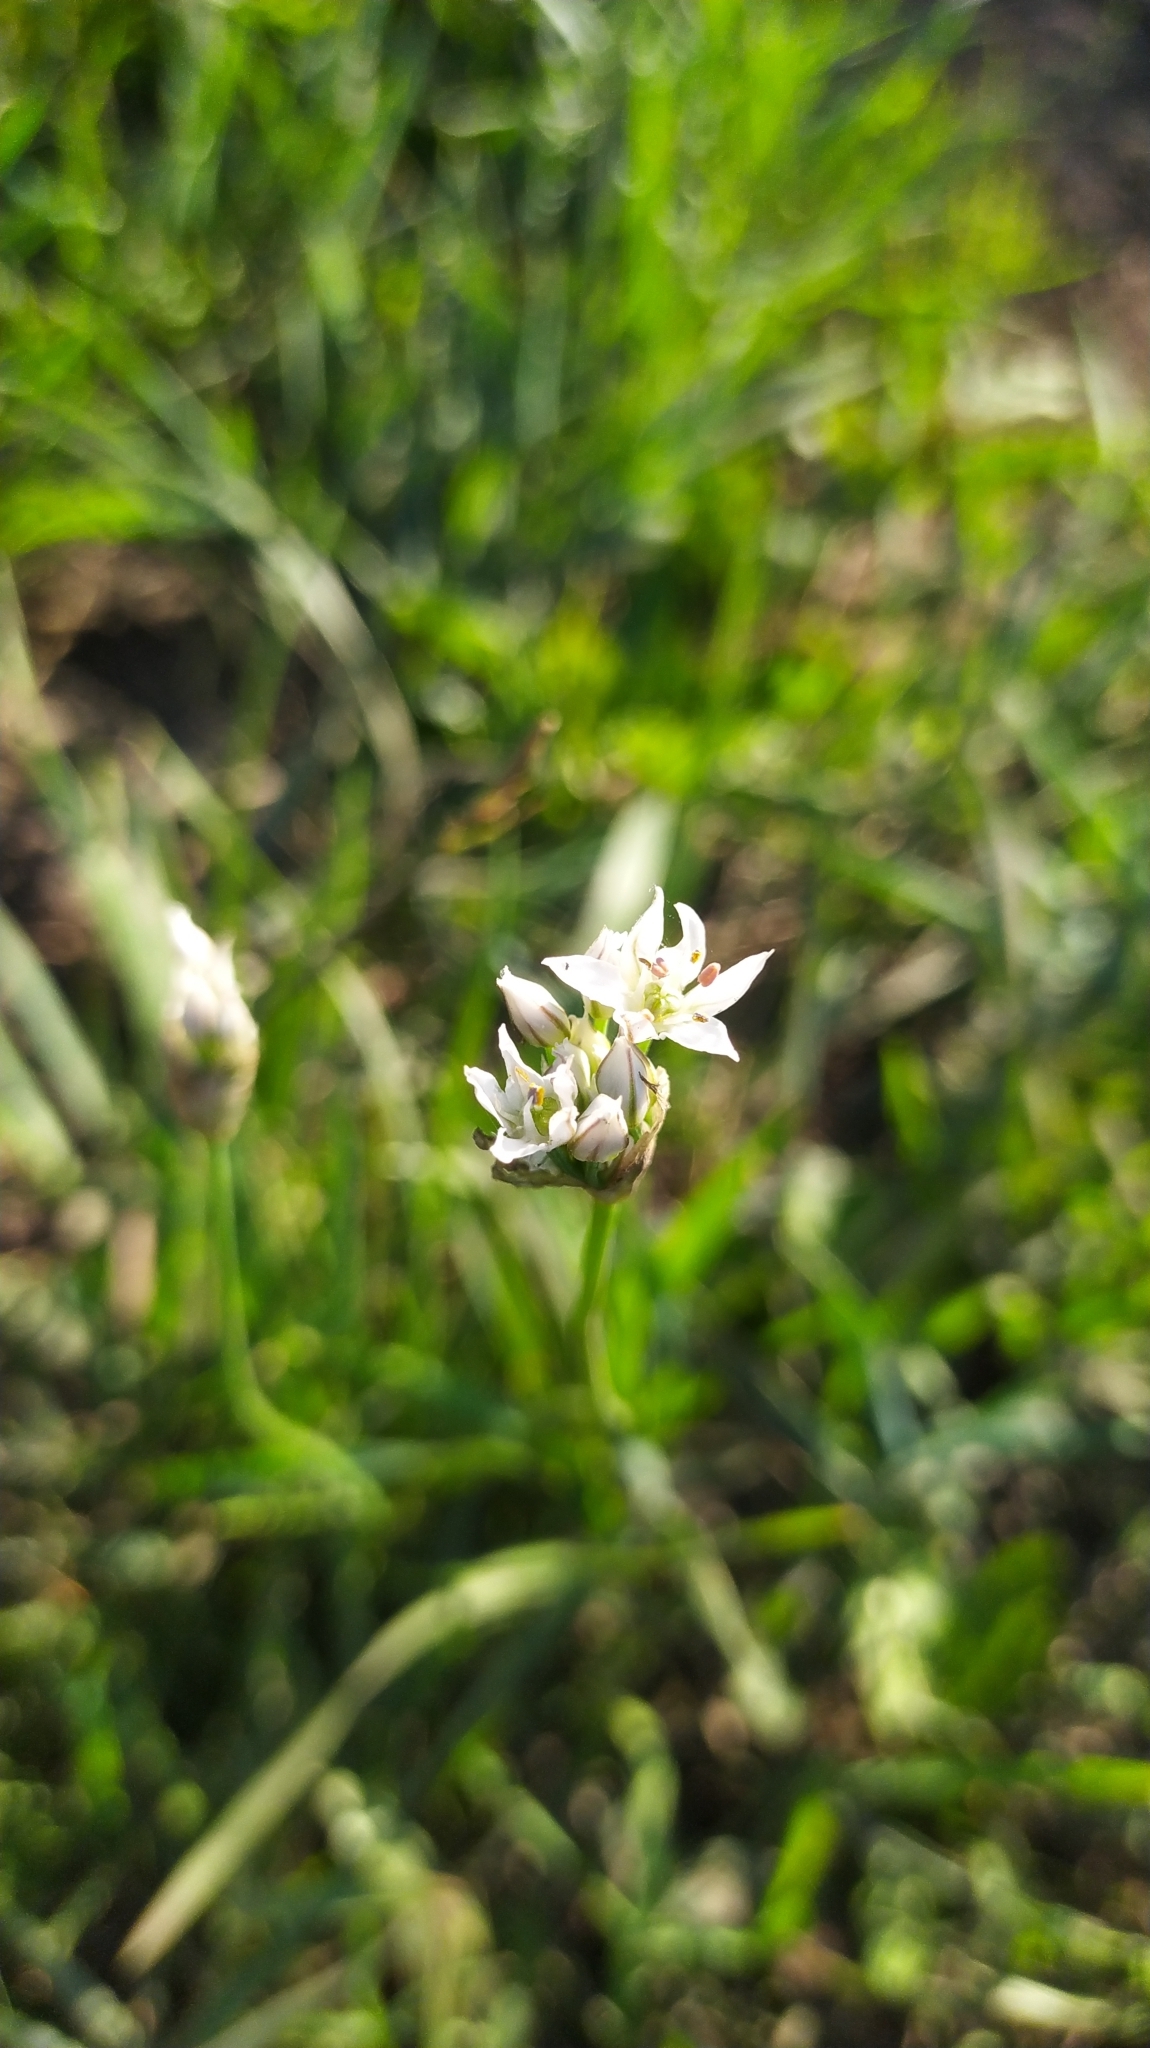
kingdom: Plantae
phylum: Tracheophyta
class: Liliopsida
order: Asparagales
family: Amaryllidaceae
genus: Allium
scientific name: Allium ramosum
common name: Fragrant garlic
